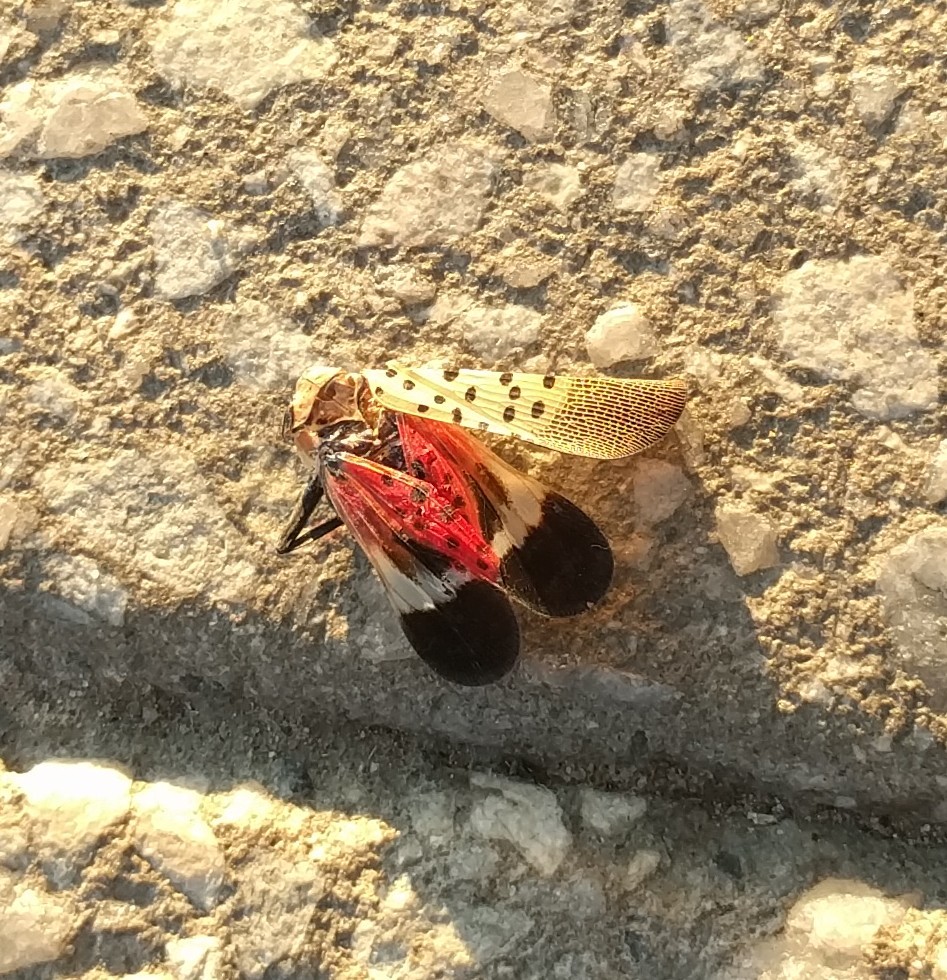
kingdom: Animalia
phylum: Arthropoda
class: Insecta
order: Hemiptera
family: Fulgoridae
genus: Lycorma
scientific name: Lycorma delicatula
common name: Spotted lanternfly
